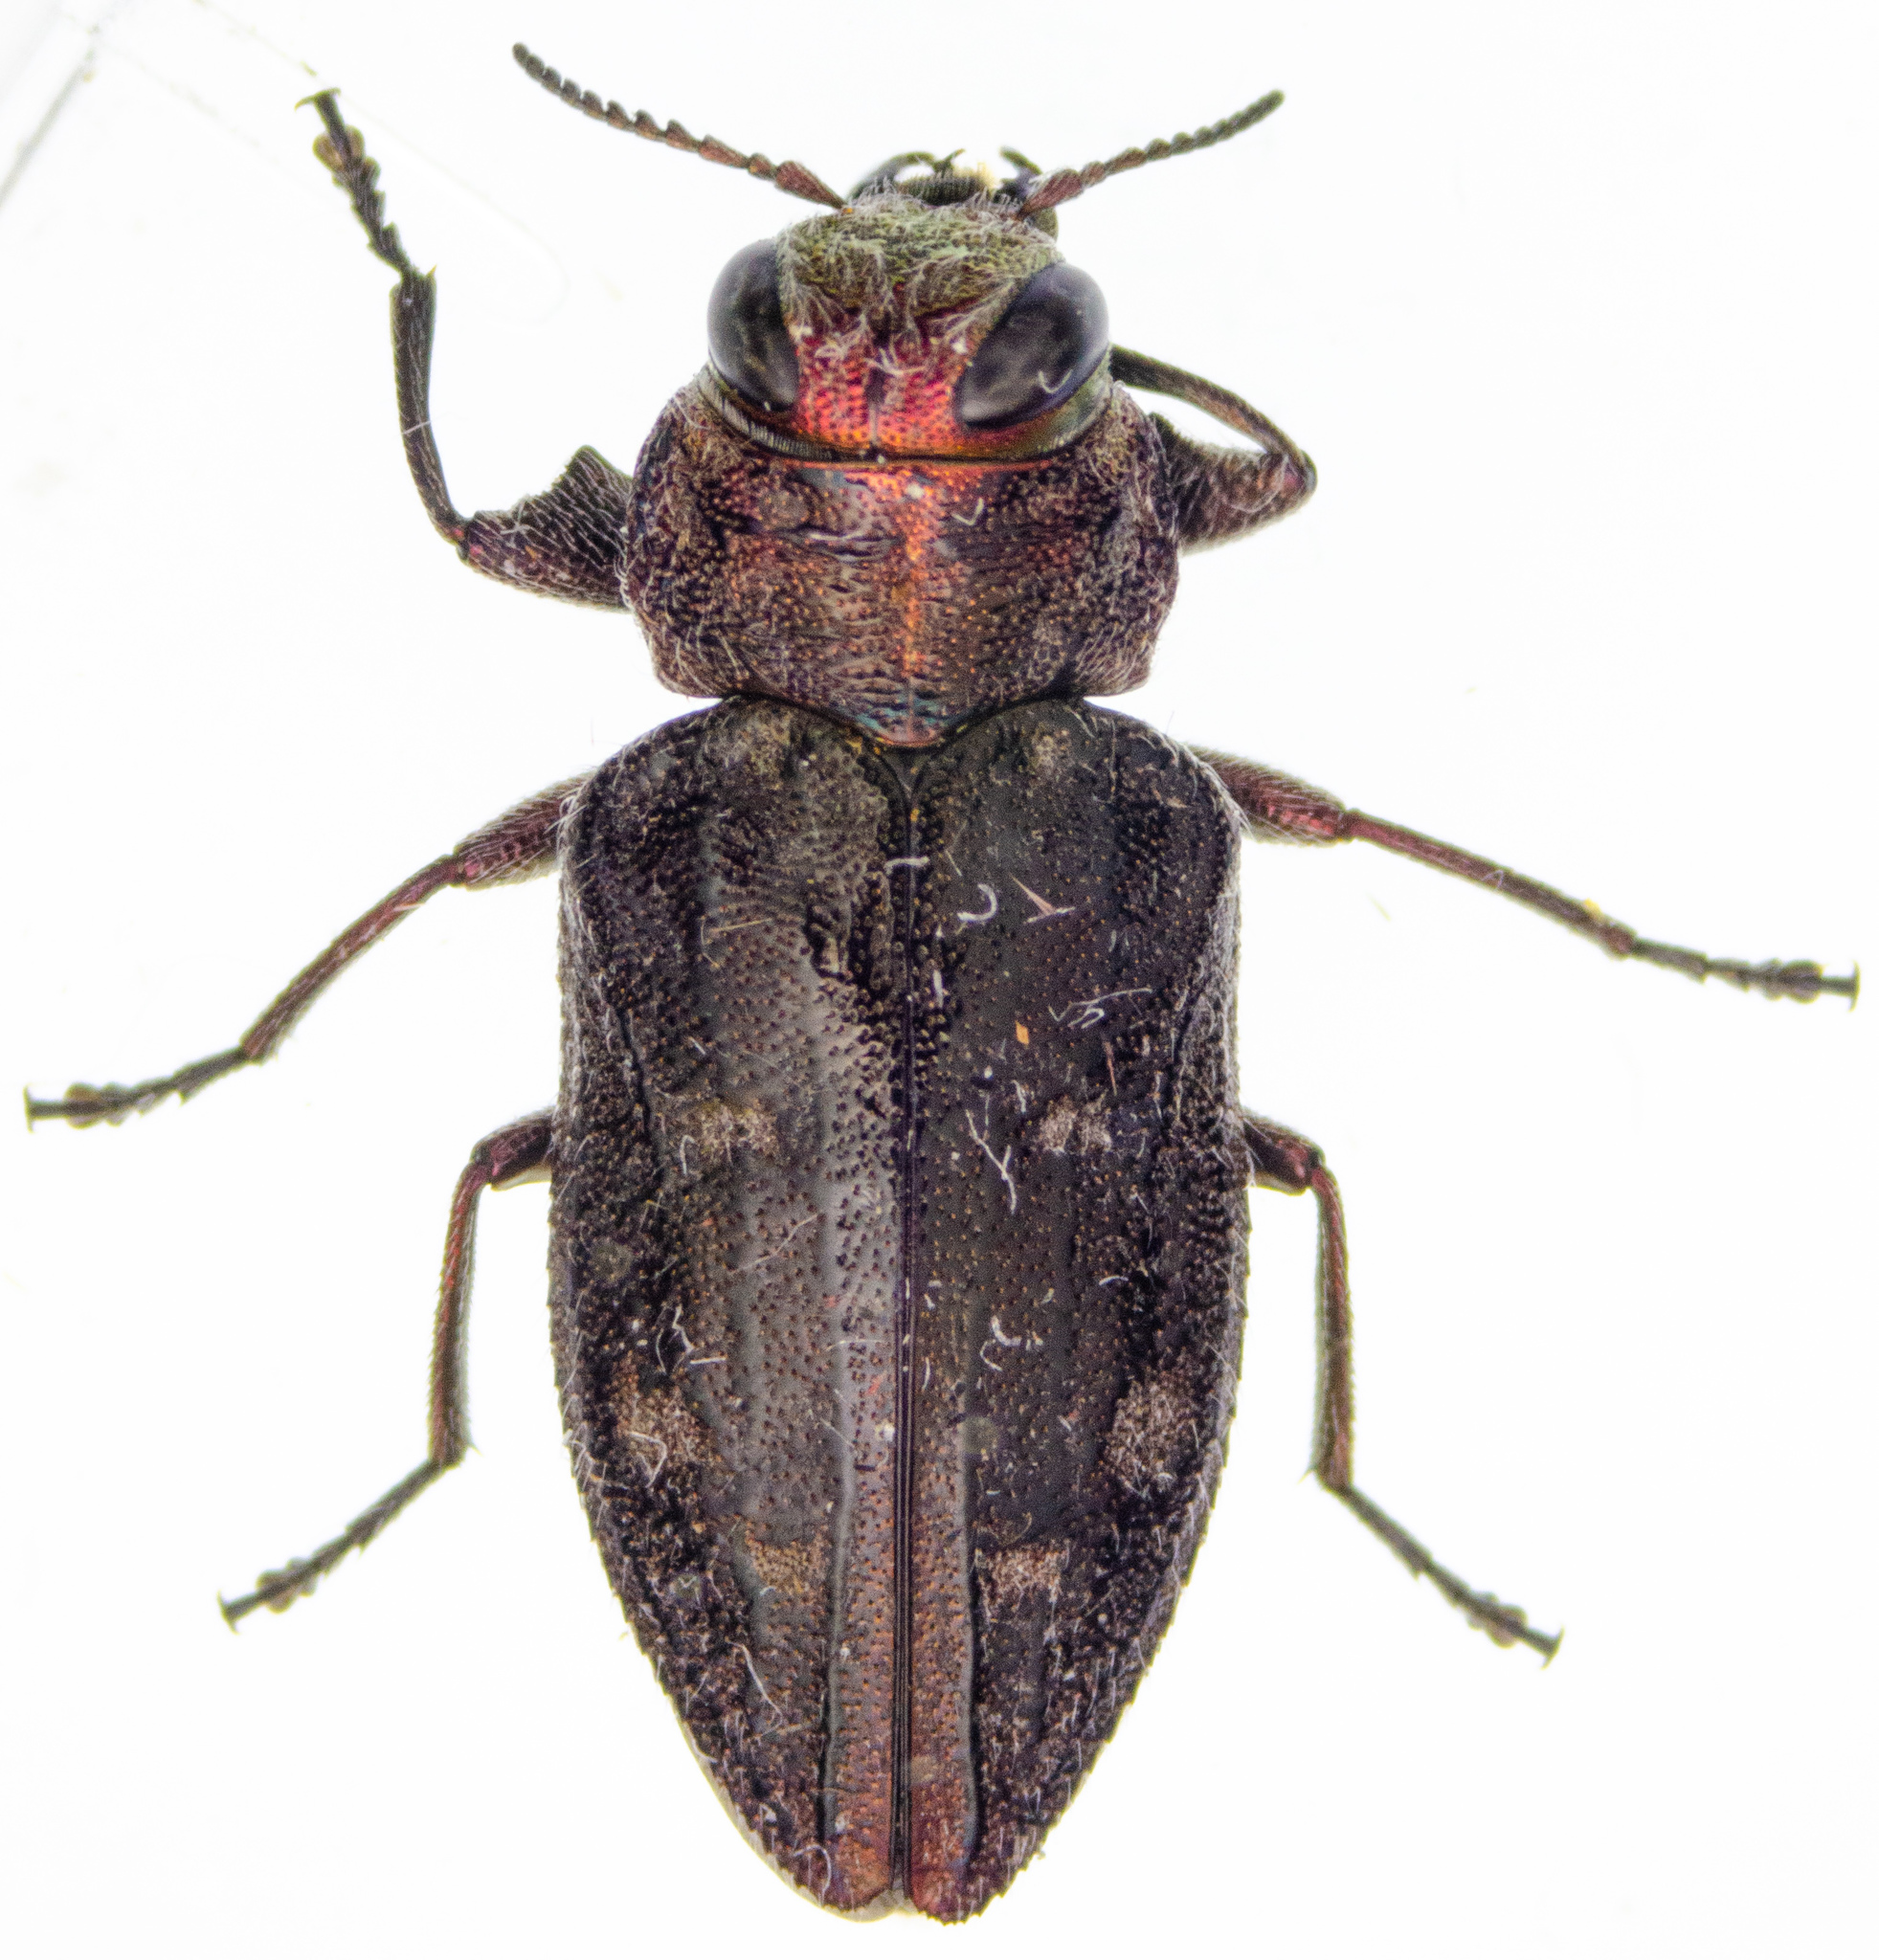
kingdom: Animalia
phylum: Arthropoda
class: Insecta
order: Coleoptera
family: Buprestidae
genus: Chrysobothris
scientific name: Chrysobothris mali
